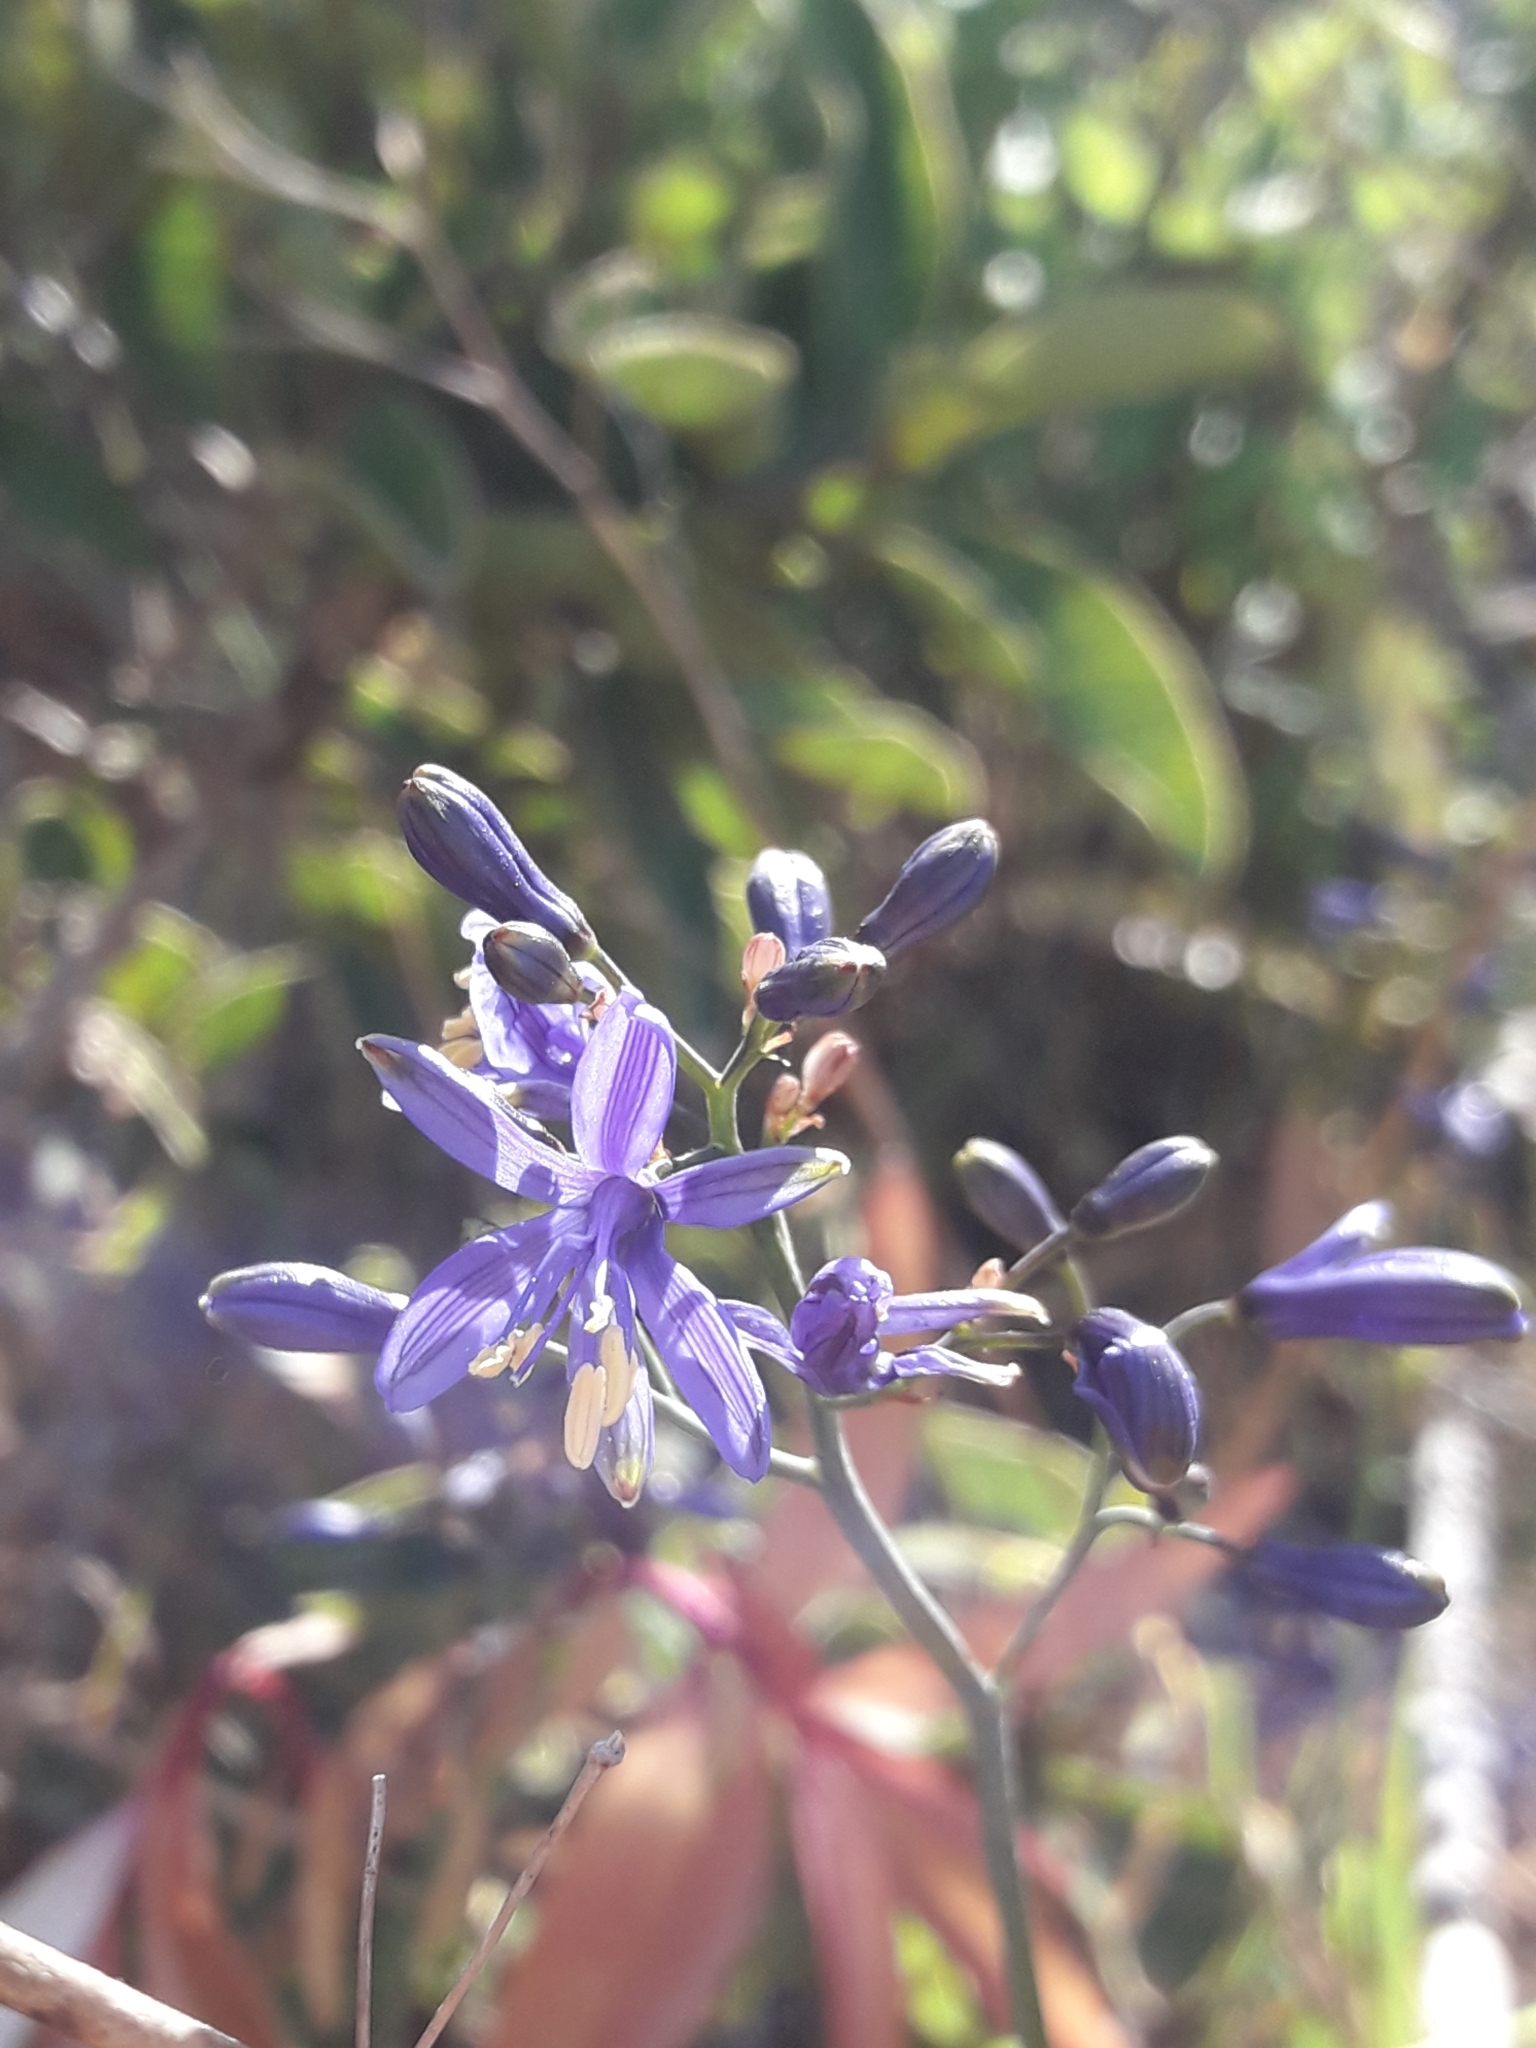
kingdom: Plantae
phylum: Tracheophyta
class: Liliopsida
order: Asparagales
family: Asphodelaceae
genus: Pasithea
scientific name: Pasithea caerulea
